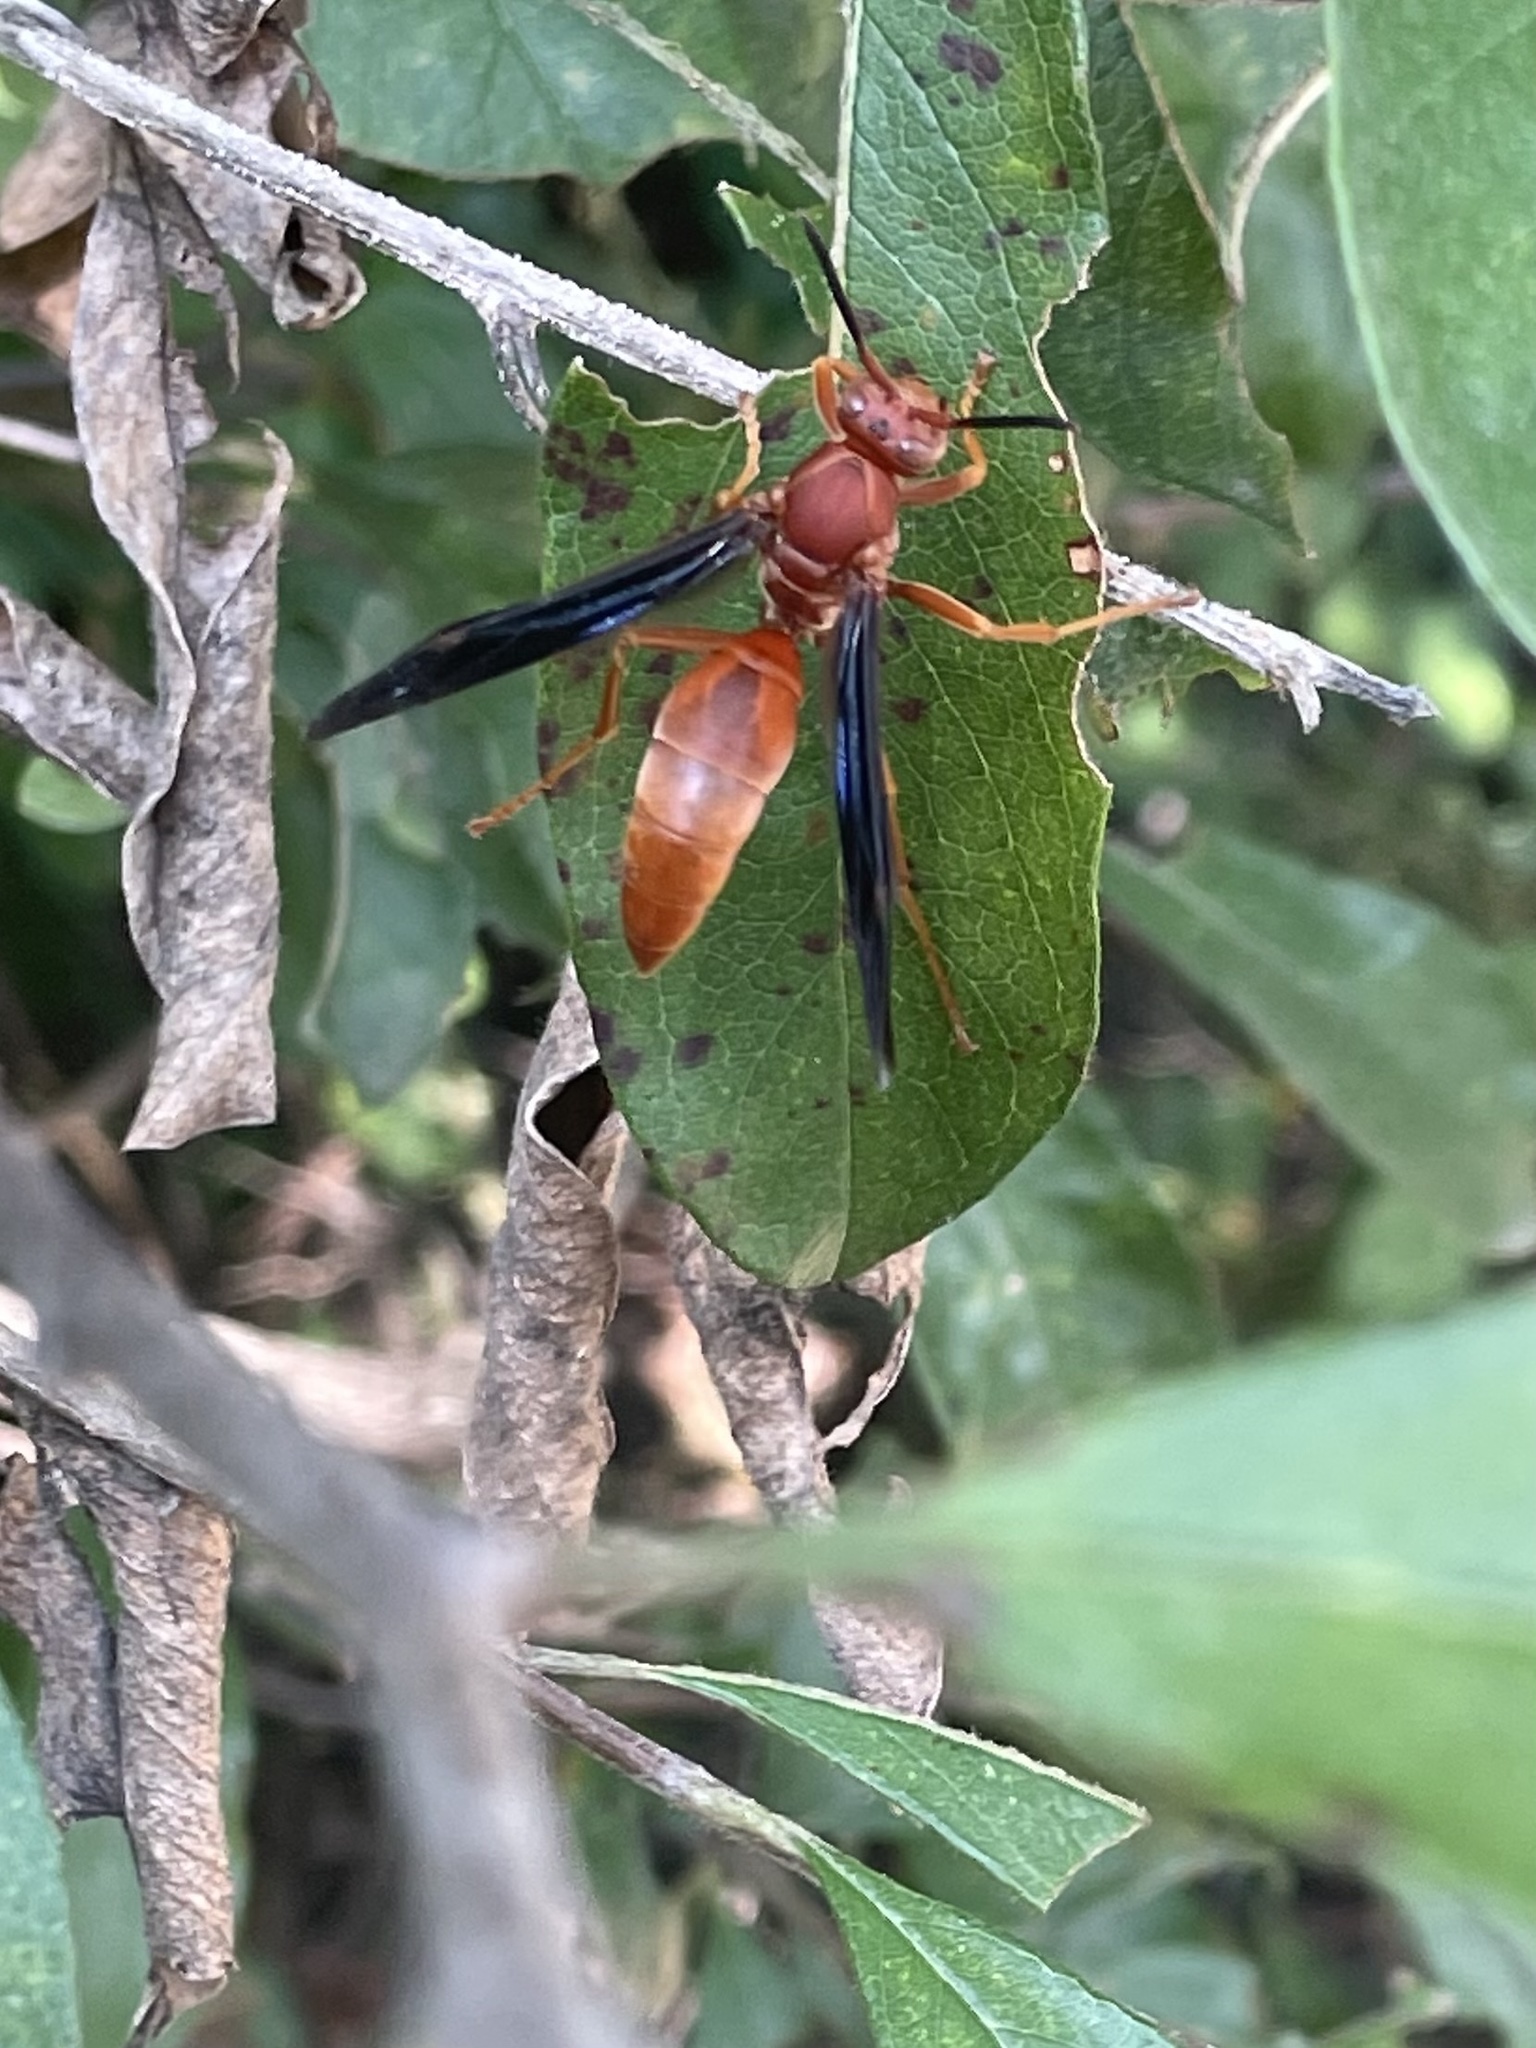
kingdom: Animalia
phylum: Arthropoda
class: Insecta
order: Hymenoptera
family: Vespidae
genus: Fuscopolistes
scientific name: Fuscopolistes
